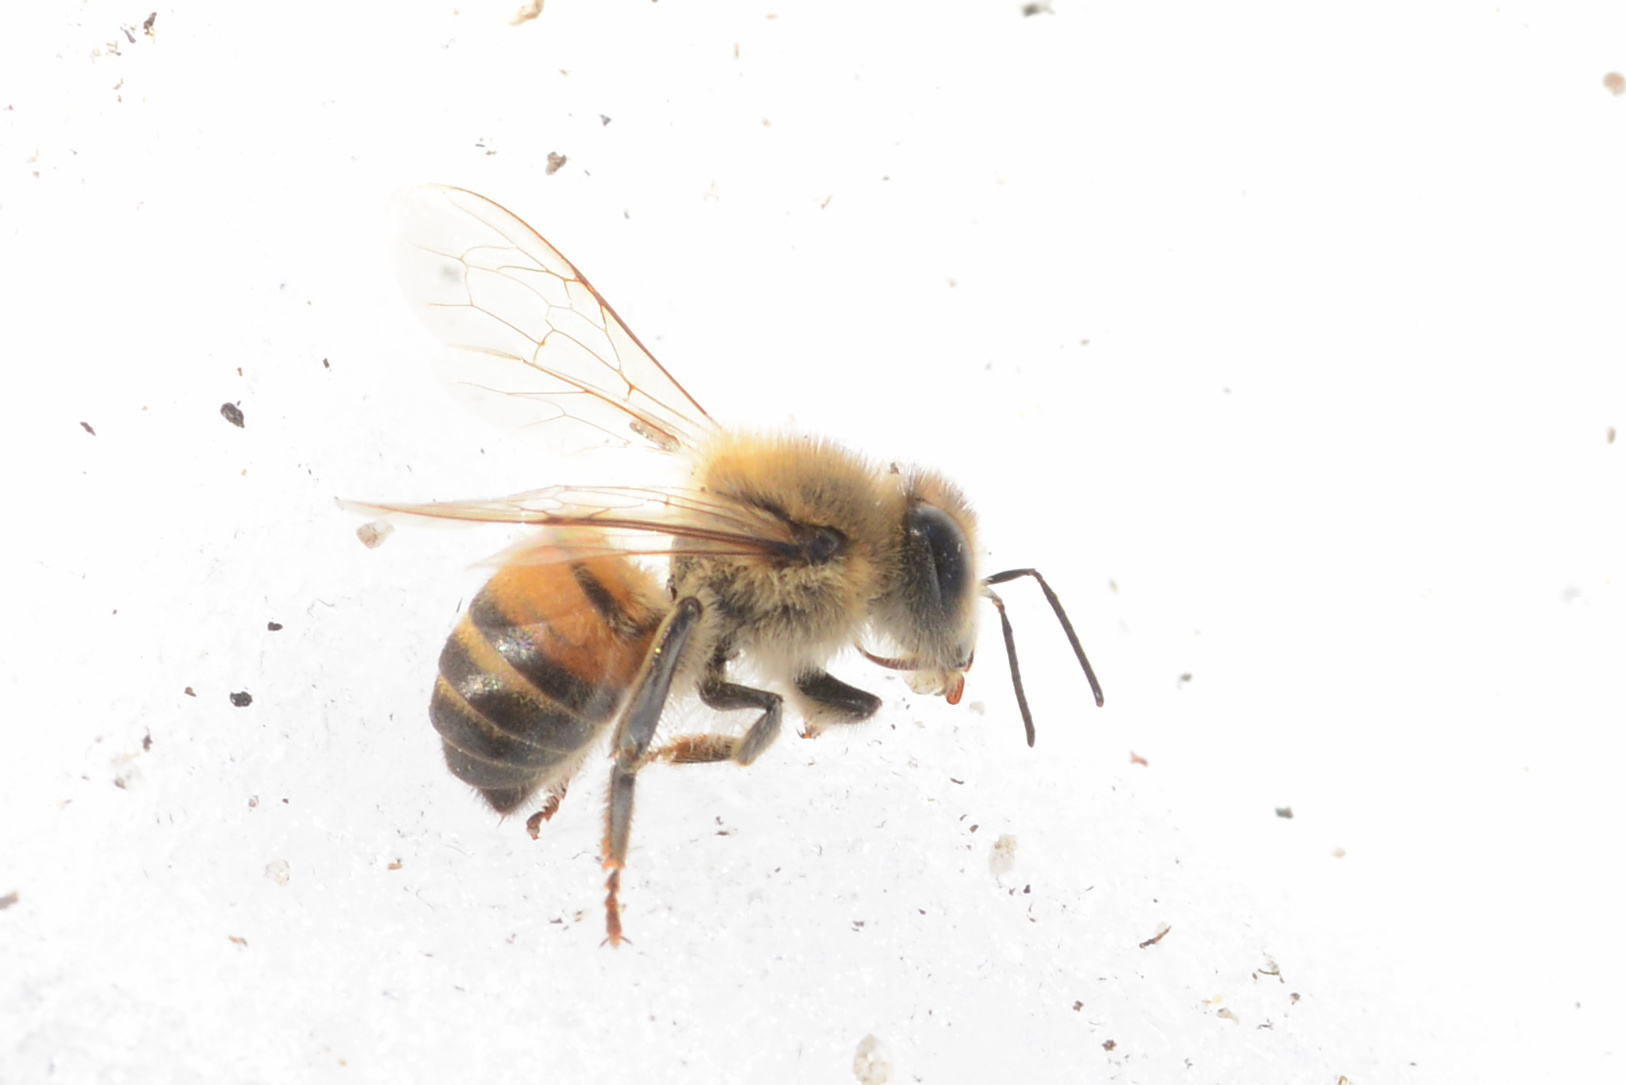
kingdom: Animalia
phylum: Arthropoda
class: Insecta
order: Hymenoptera
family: Apidae
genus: Apis
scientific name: Apis mellifera
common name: Honey bee
